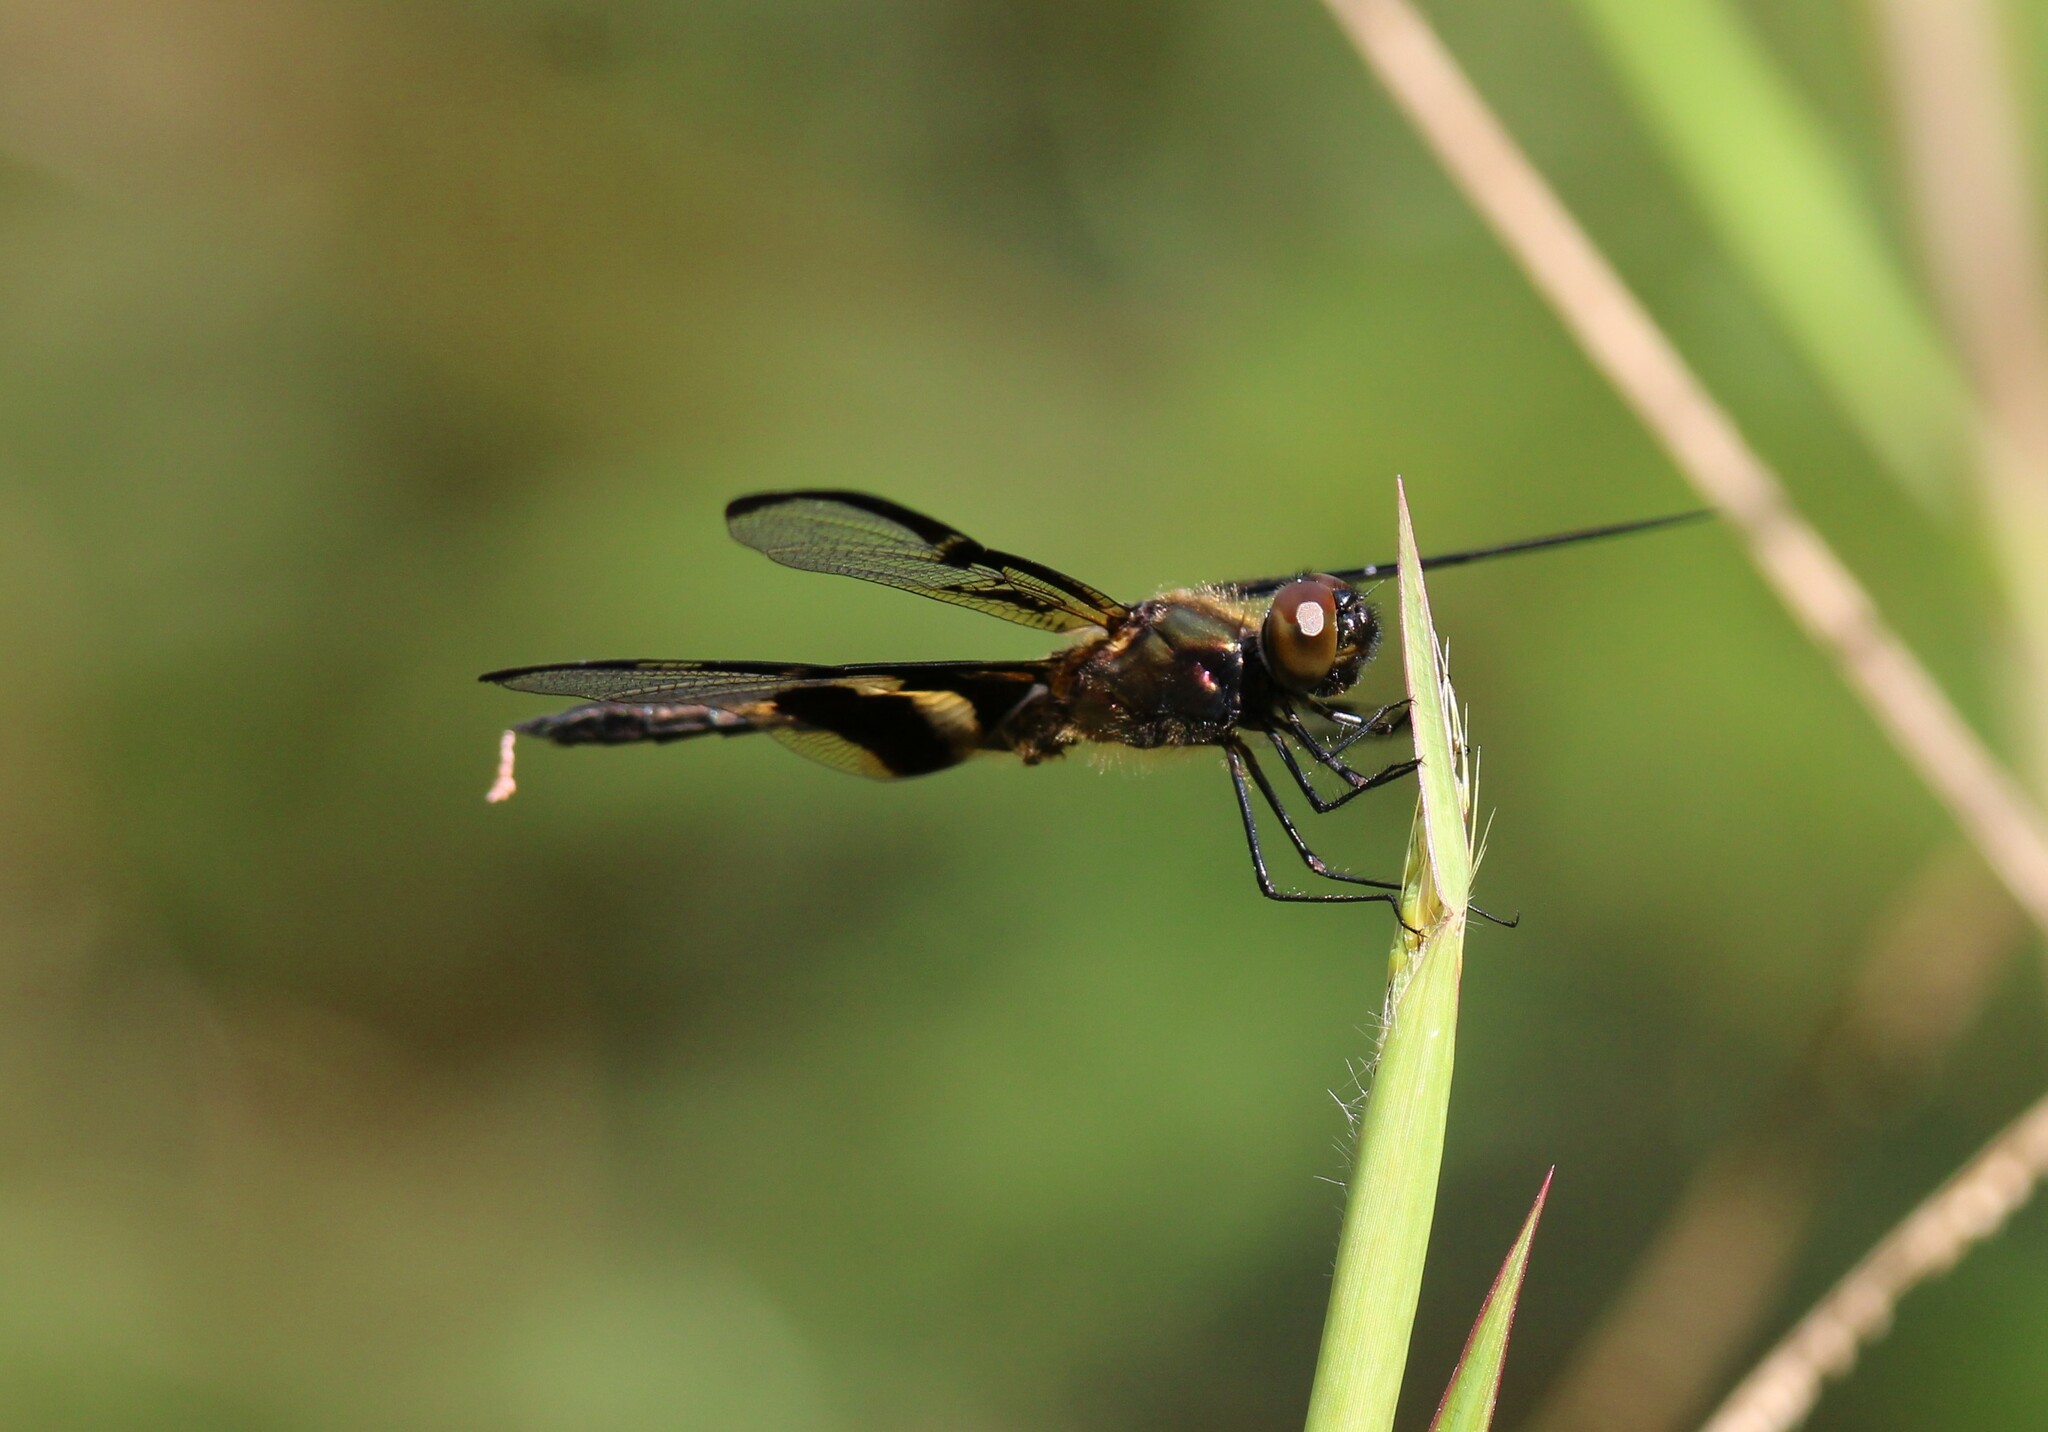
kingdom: Animalia
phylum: Arthropoda
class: Insecta
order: Odonata
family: Libellulidae
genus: Rhyothemis
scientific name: Rhyothemis phyllis
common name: Yellow-barred flutterer
